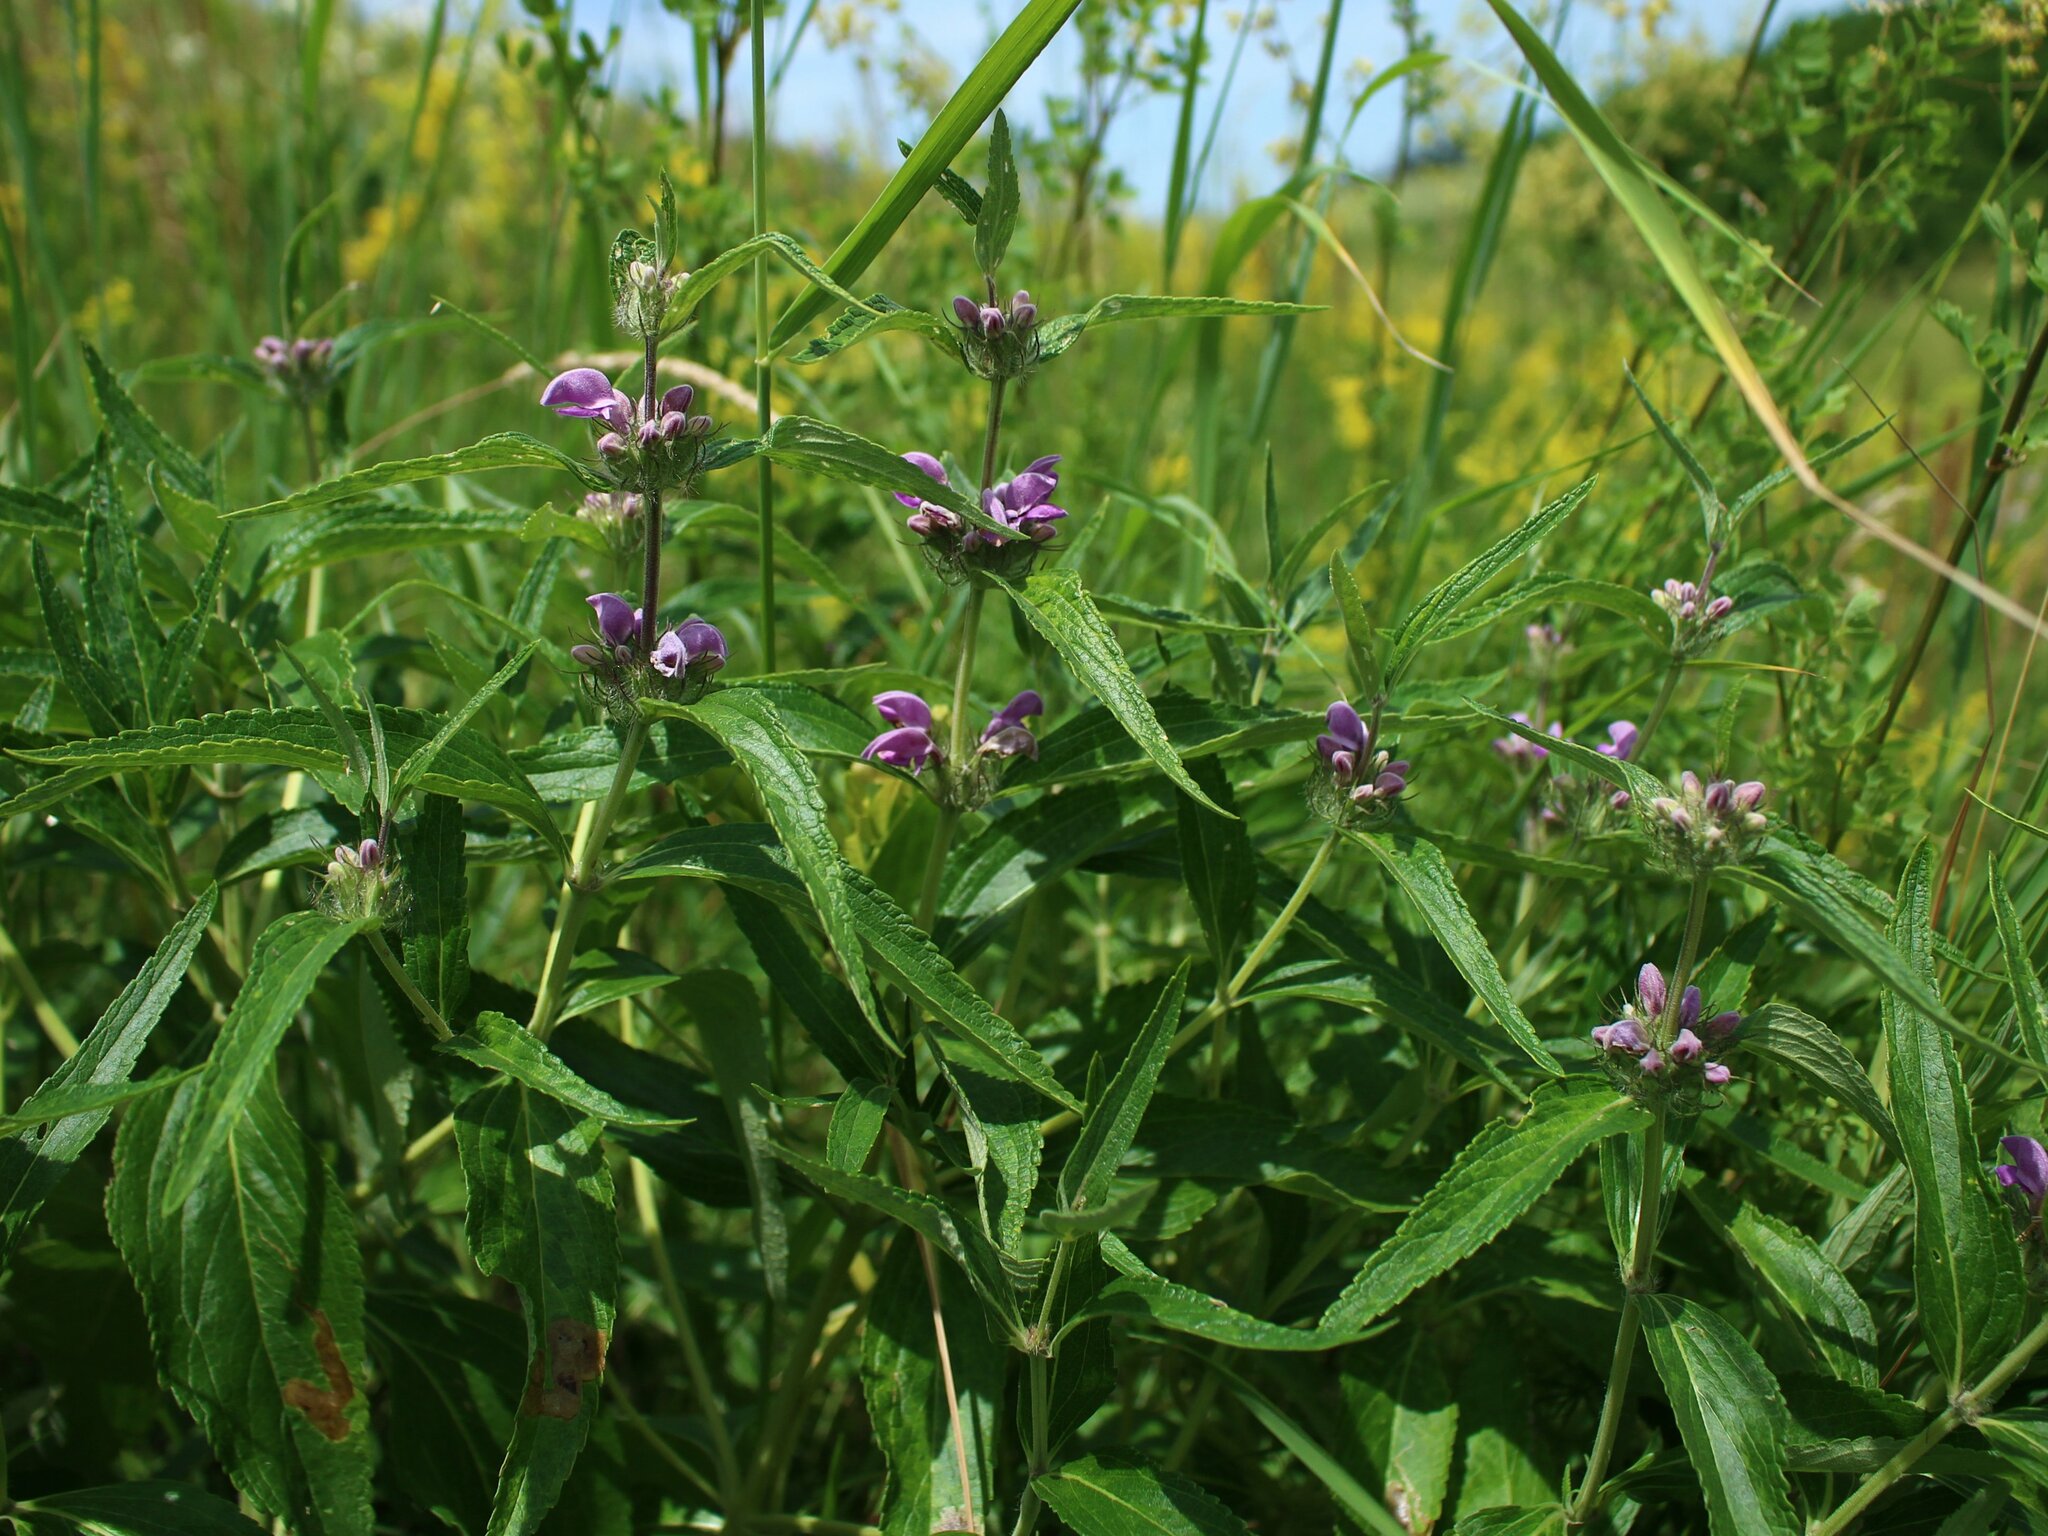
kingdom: Plantae
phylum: Tracheophyta
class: Magnoliopsida
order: Lamiales
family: Lamiaceae
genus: Phlomis
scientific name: Phlomis herba-venti
